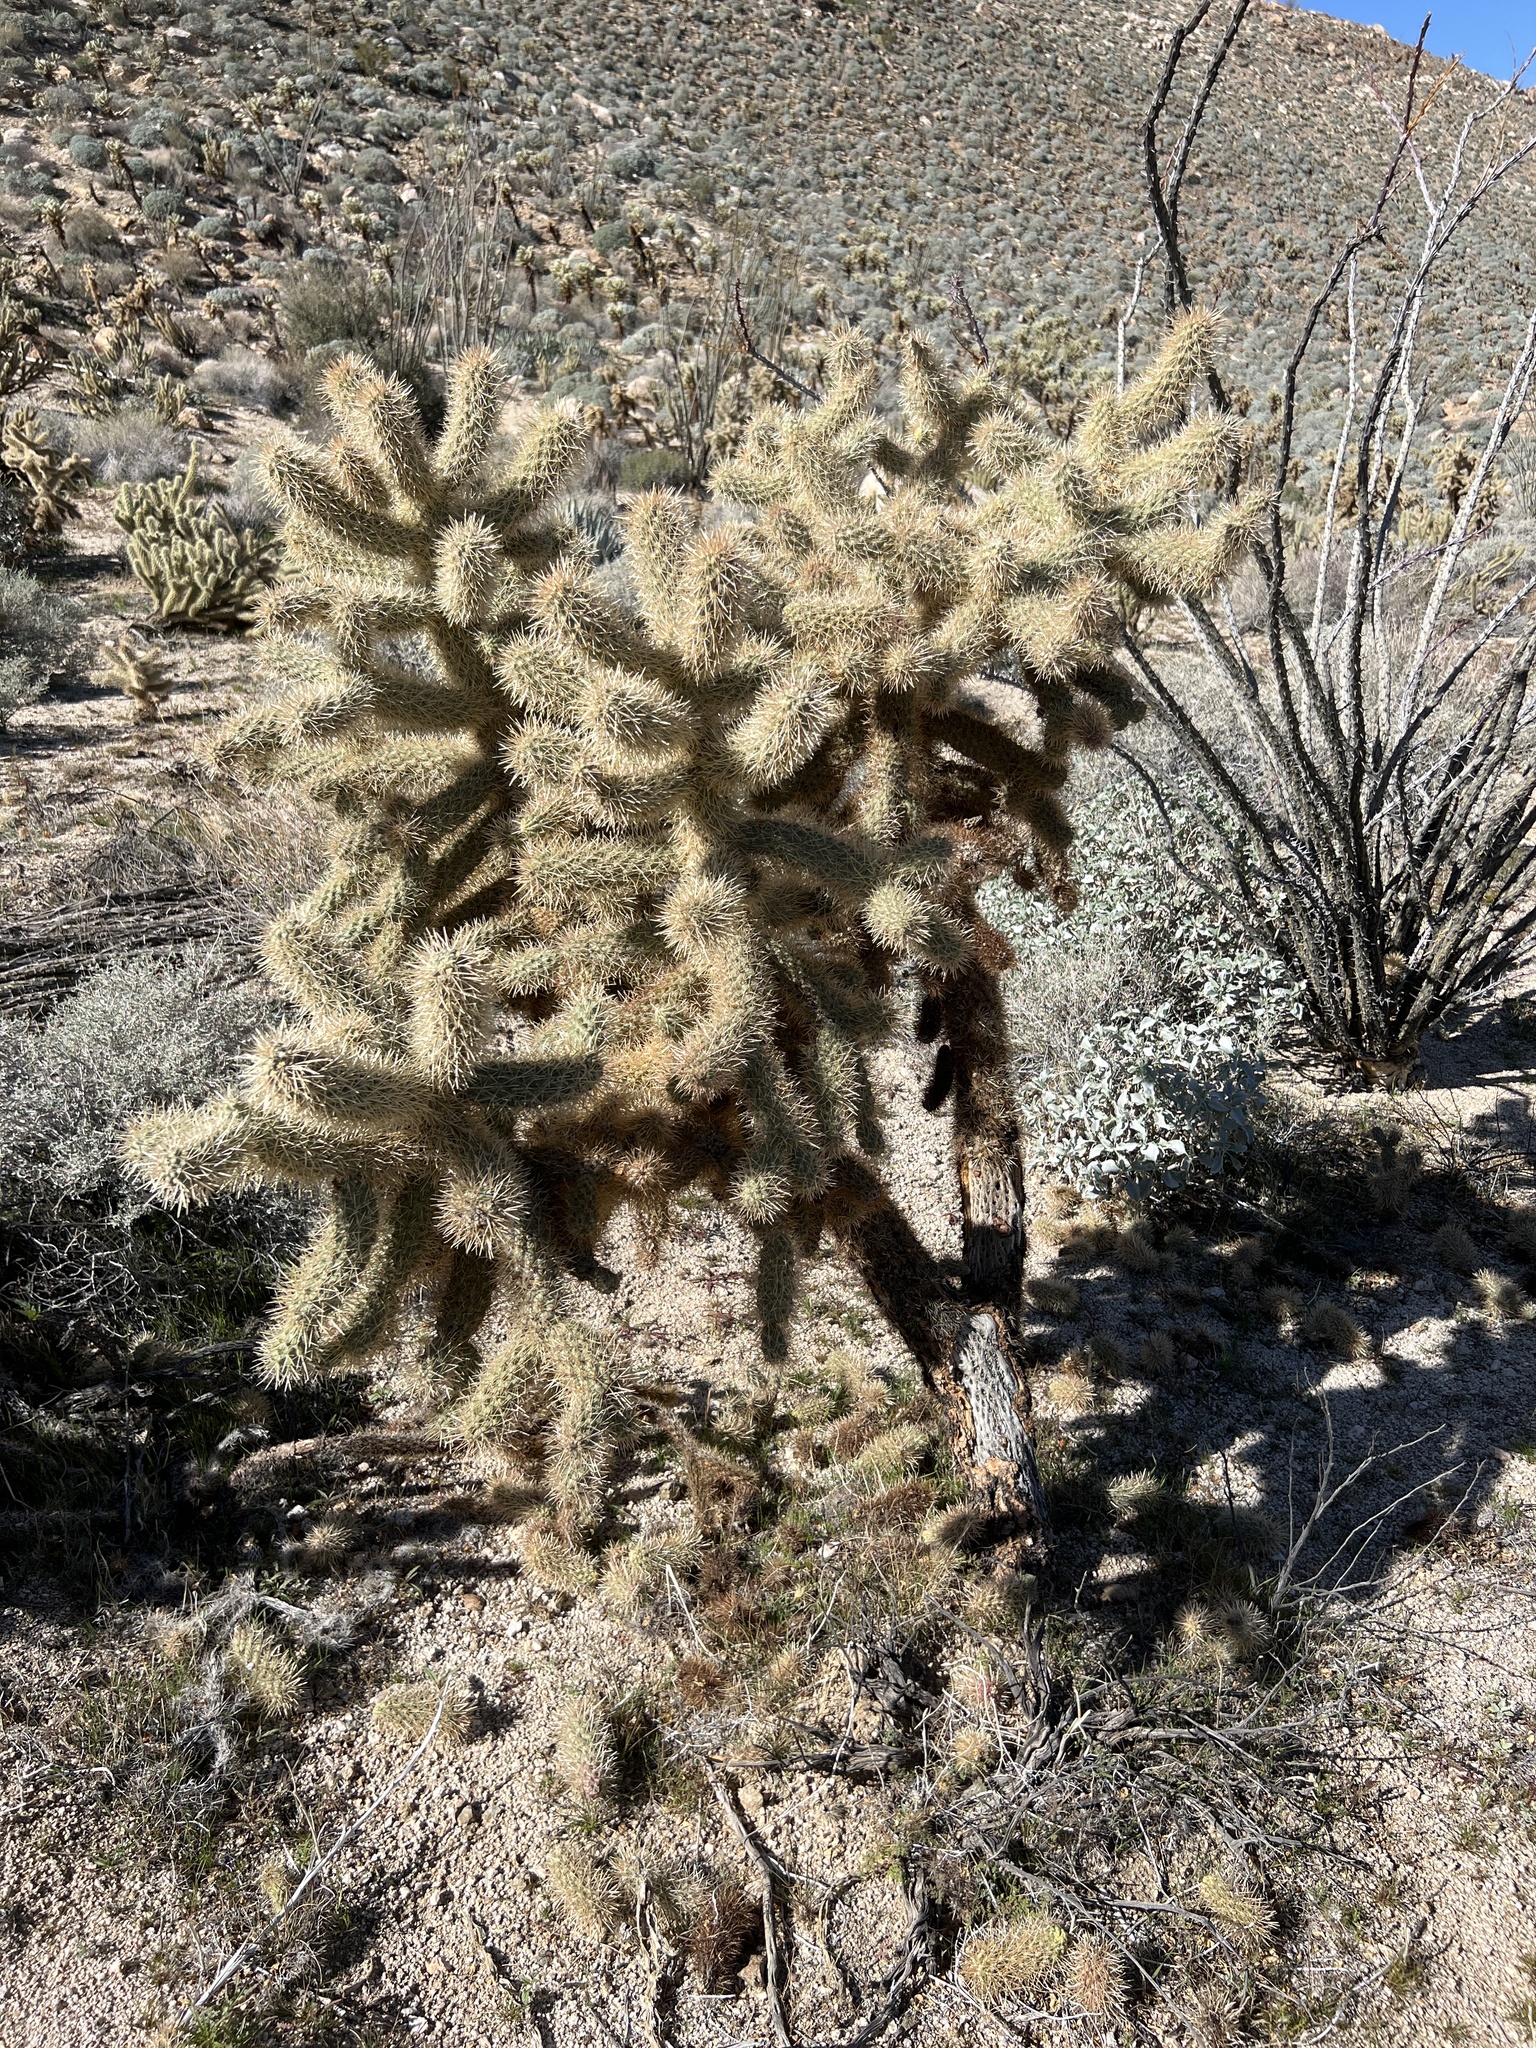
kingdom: Plantae
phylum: Tracheophyta
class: Magnoliopsida
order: Caryophyllales
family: Cactaceae
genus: Cylindropuntia
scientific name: Cylindropuntia fosbergii
